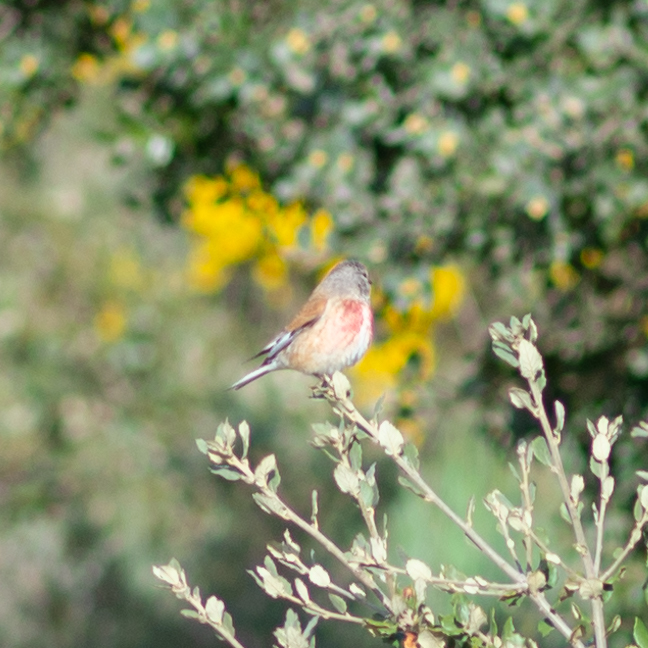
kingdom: Animalia
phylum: Chordata
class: Aves
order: Passeriformes
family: Fringillidae
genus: Linaria
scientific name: Linaria cannabina
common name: Common linnet
